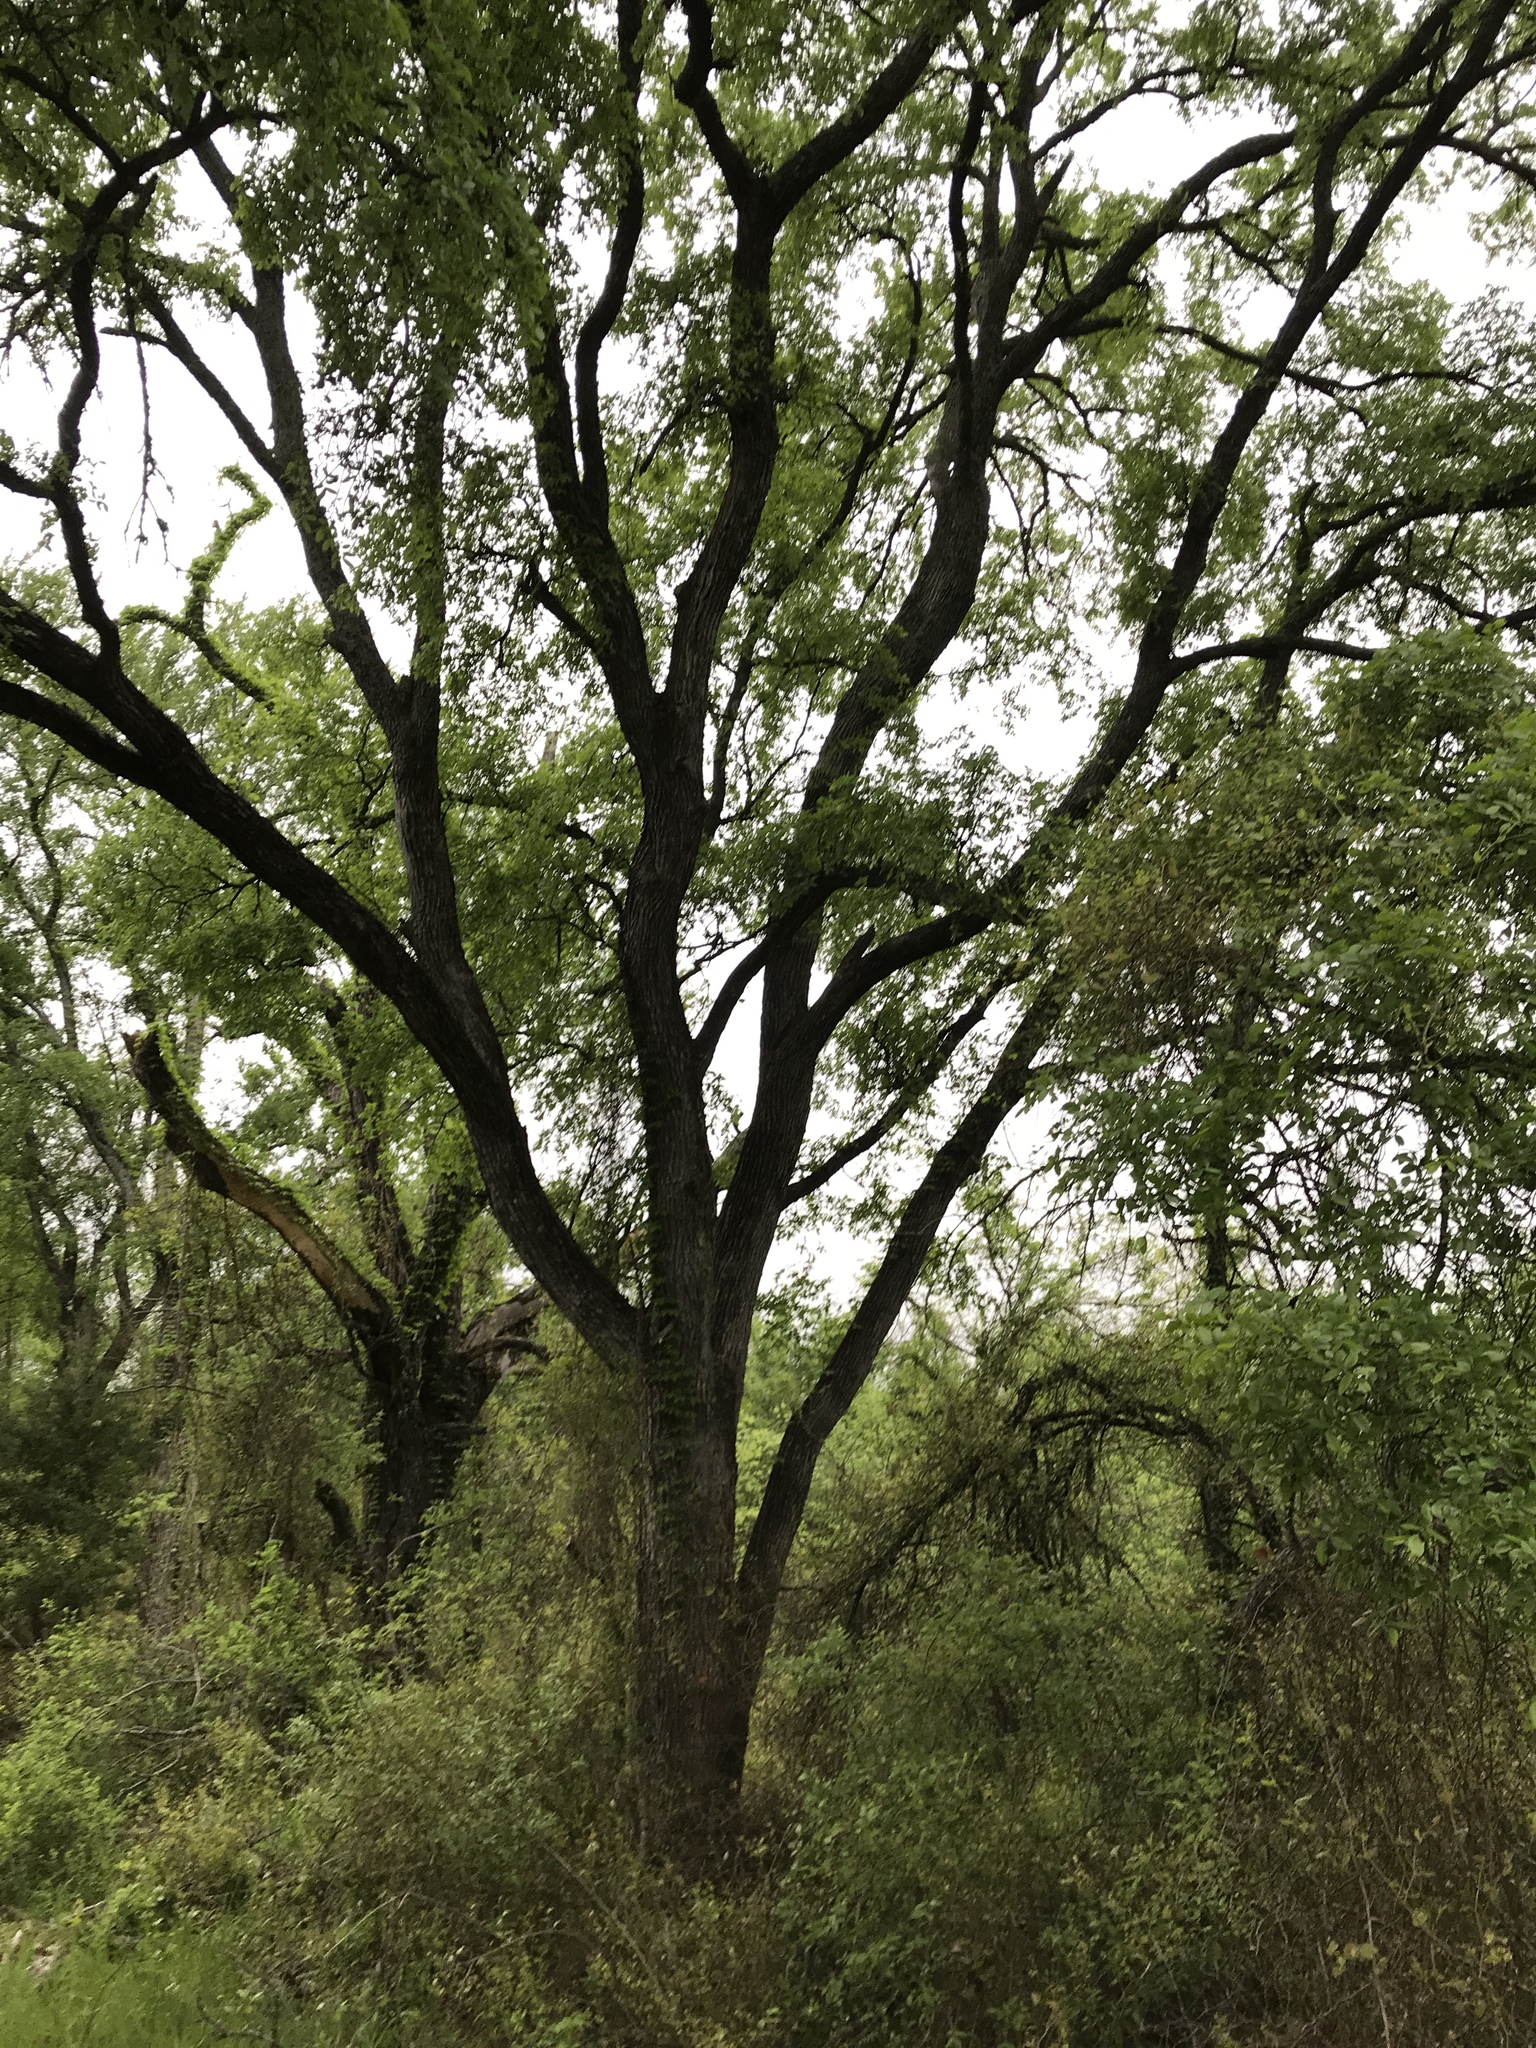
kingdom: Plantae
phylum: Tracheophyta
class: Magnoliopsida
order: Rosales
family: Ulmaceae
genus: Ulmus
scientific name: Ulmus crassifolia
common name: Basket elm
